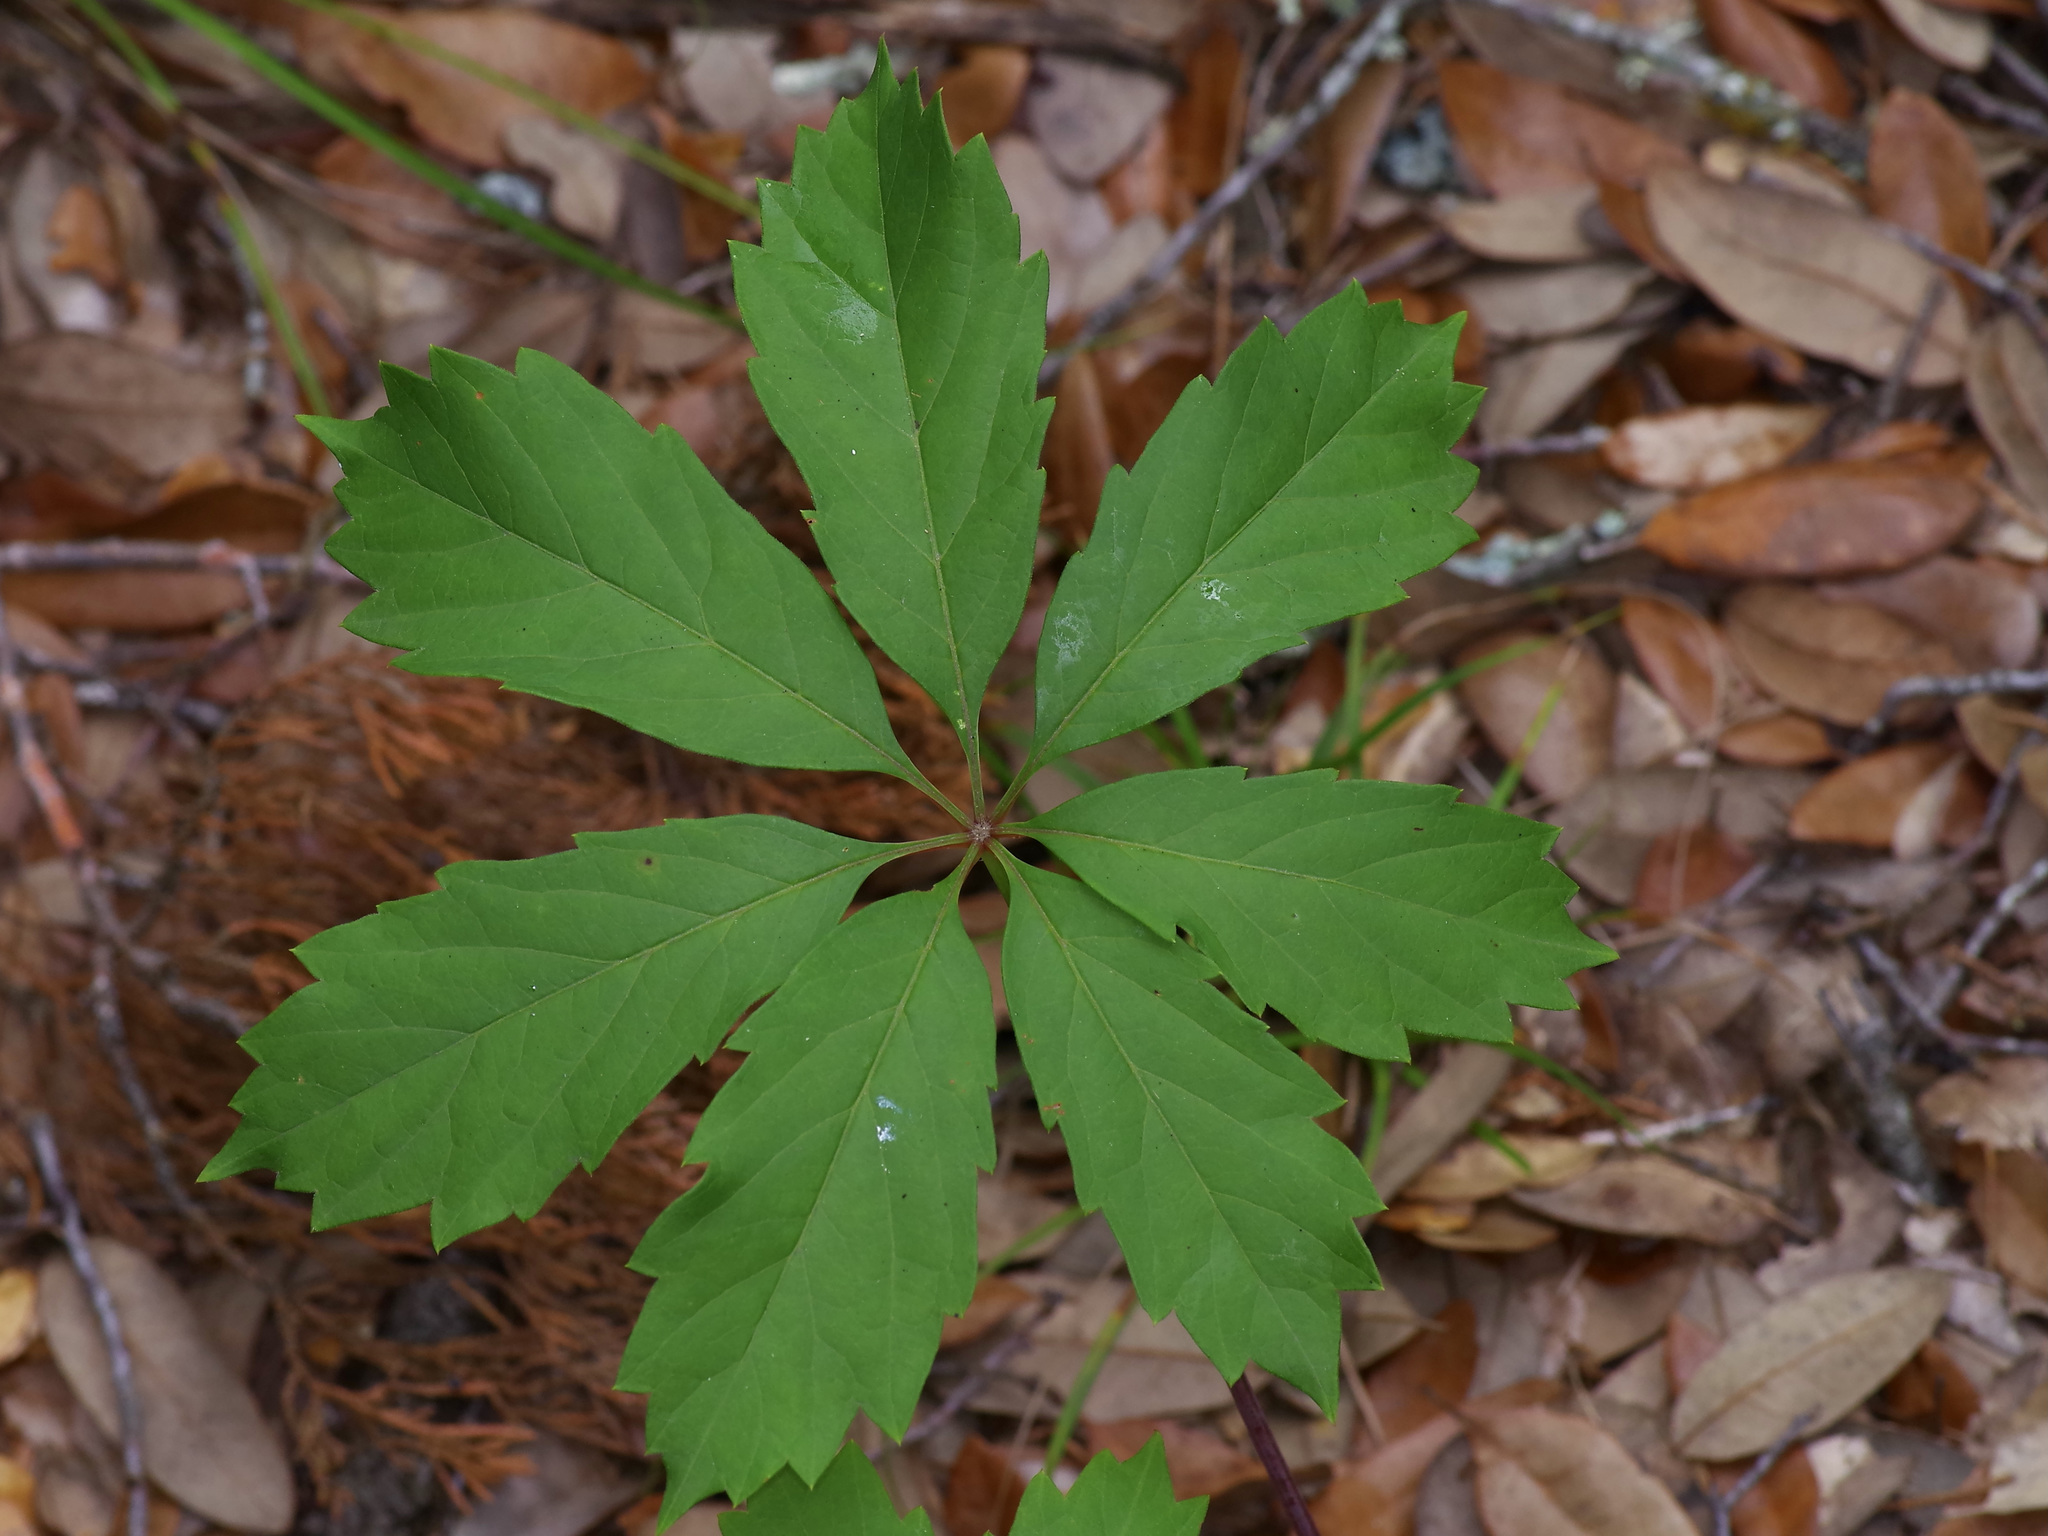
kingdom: Plantae
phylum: Tracheophyta
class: Magnoliopsida
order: Vitales
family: Vitaceae
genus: Parthenocissus
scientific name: Parthenocissus heptaphylla
